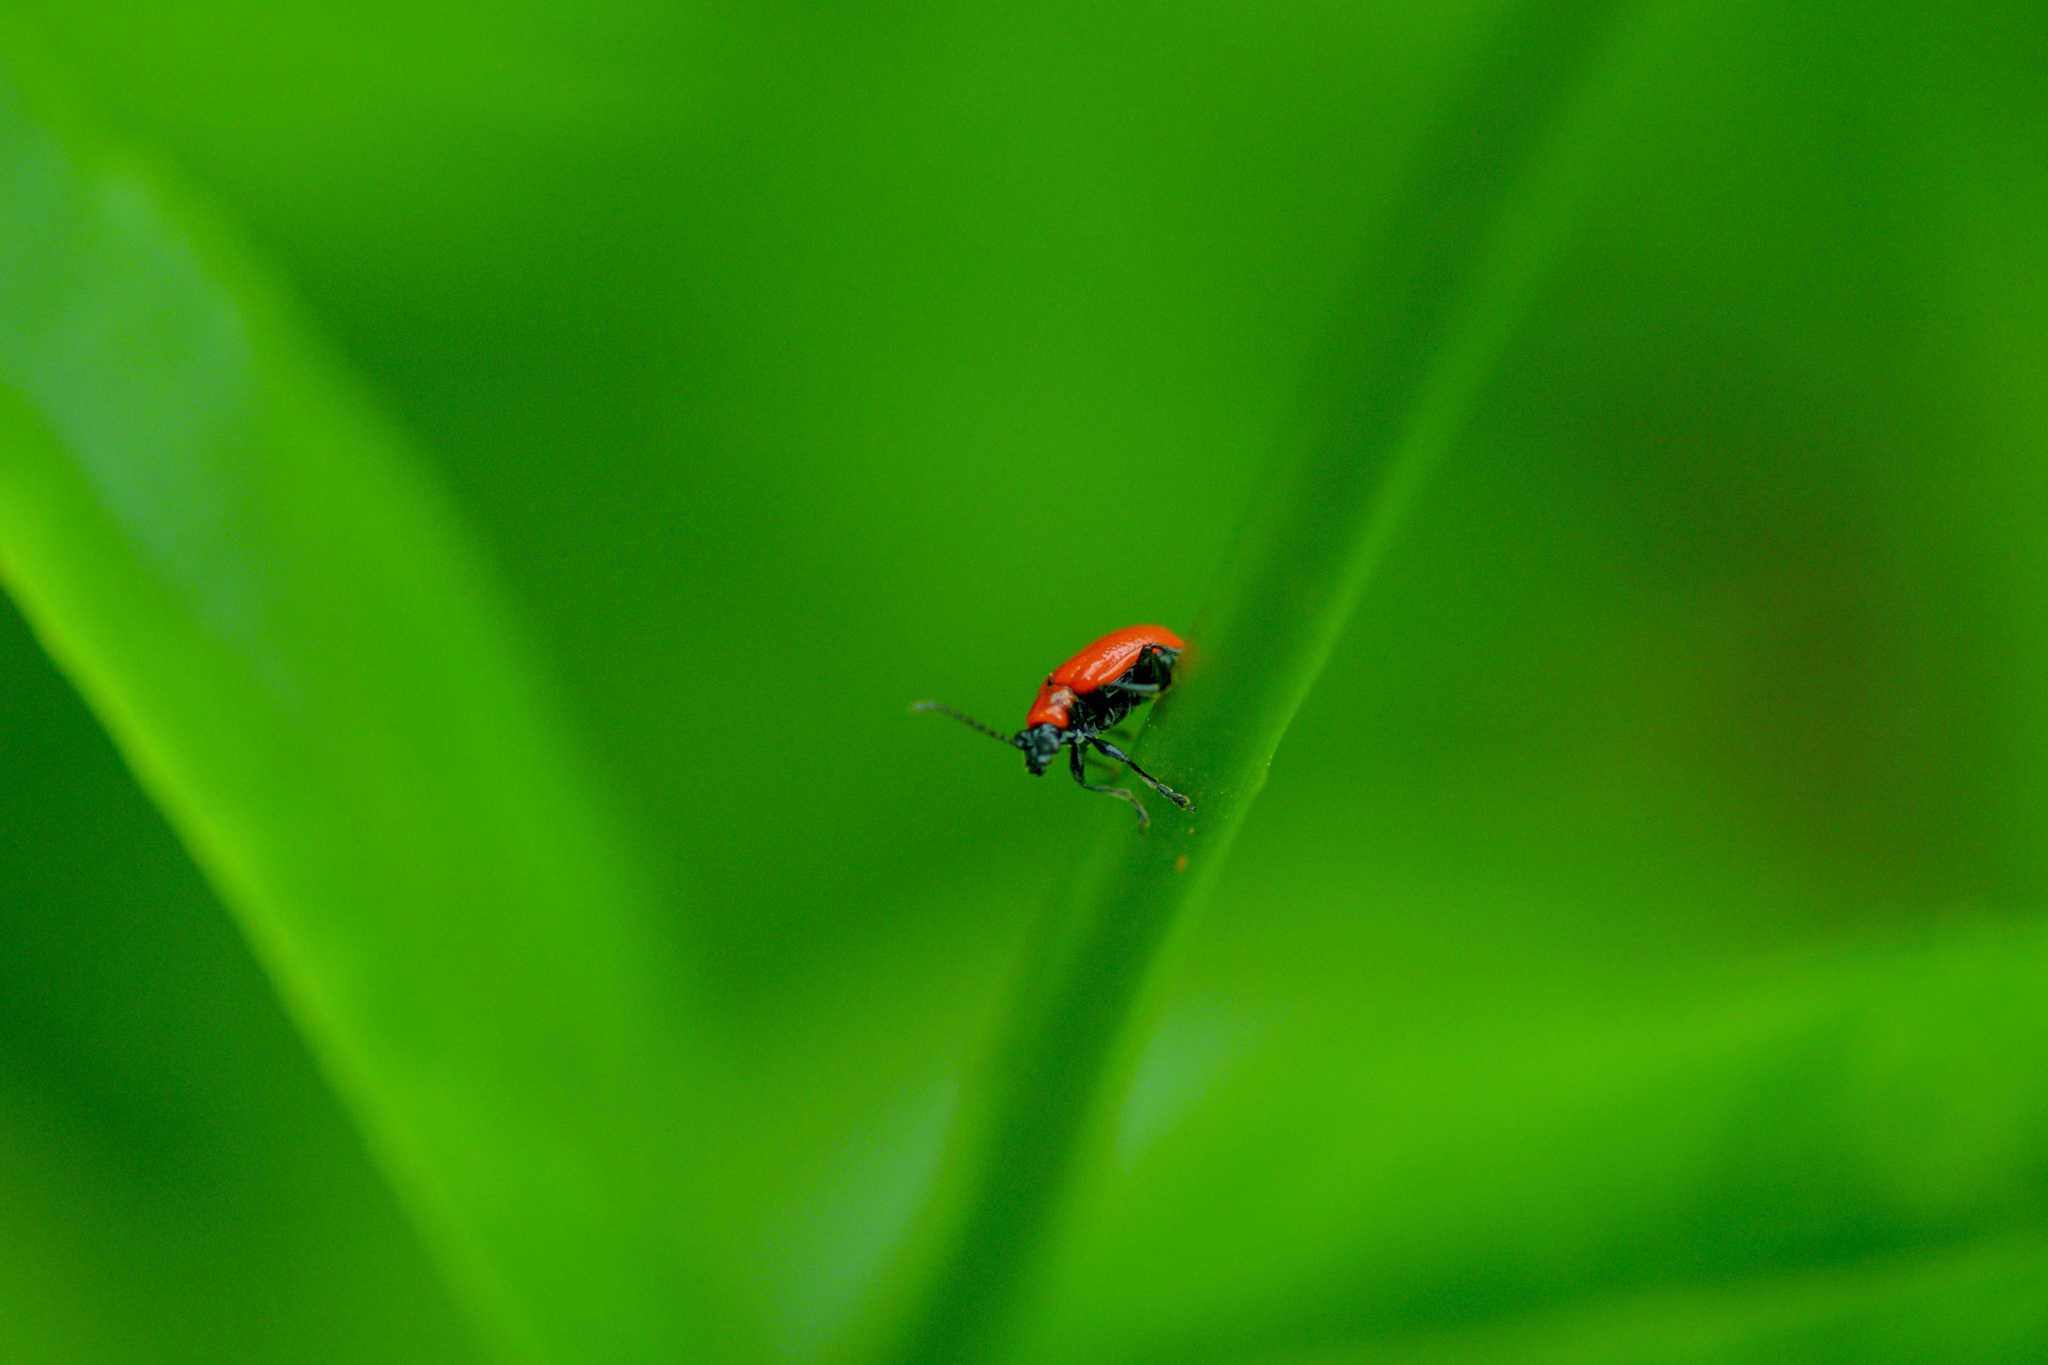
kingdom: Animalia
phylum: Arthropoda
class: Insecta
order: Coleoptera
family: Chrysomelidae
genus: Lilioceris
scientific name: Lilioceris lilii
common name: Lily beetle
